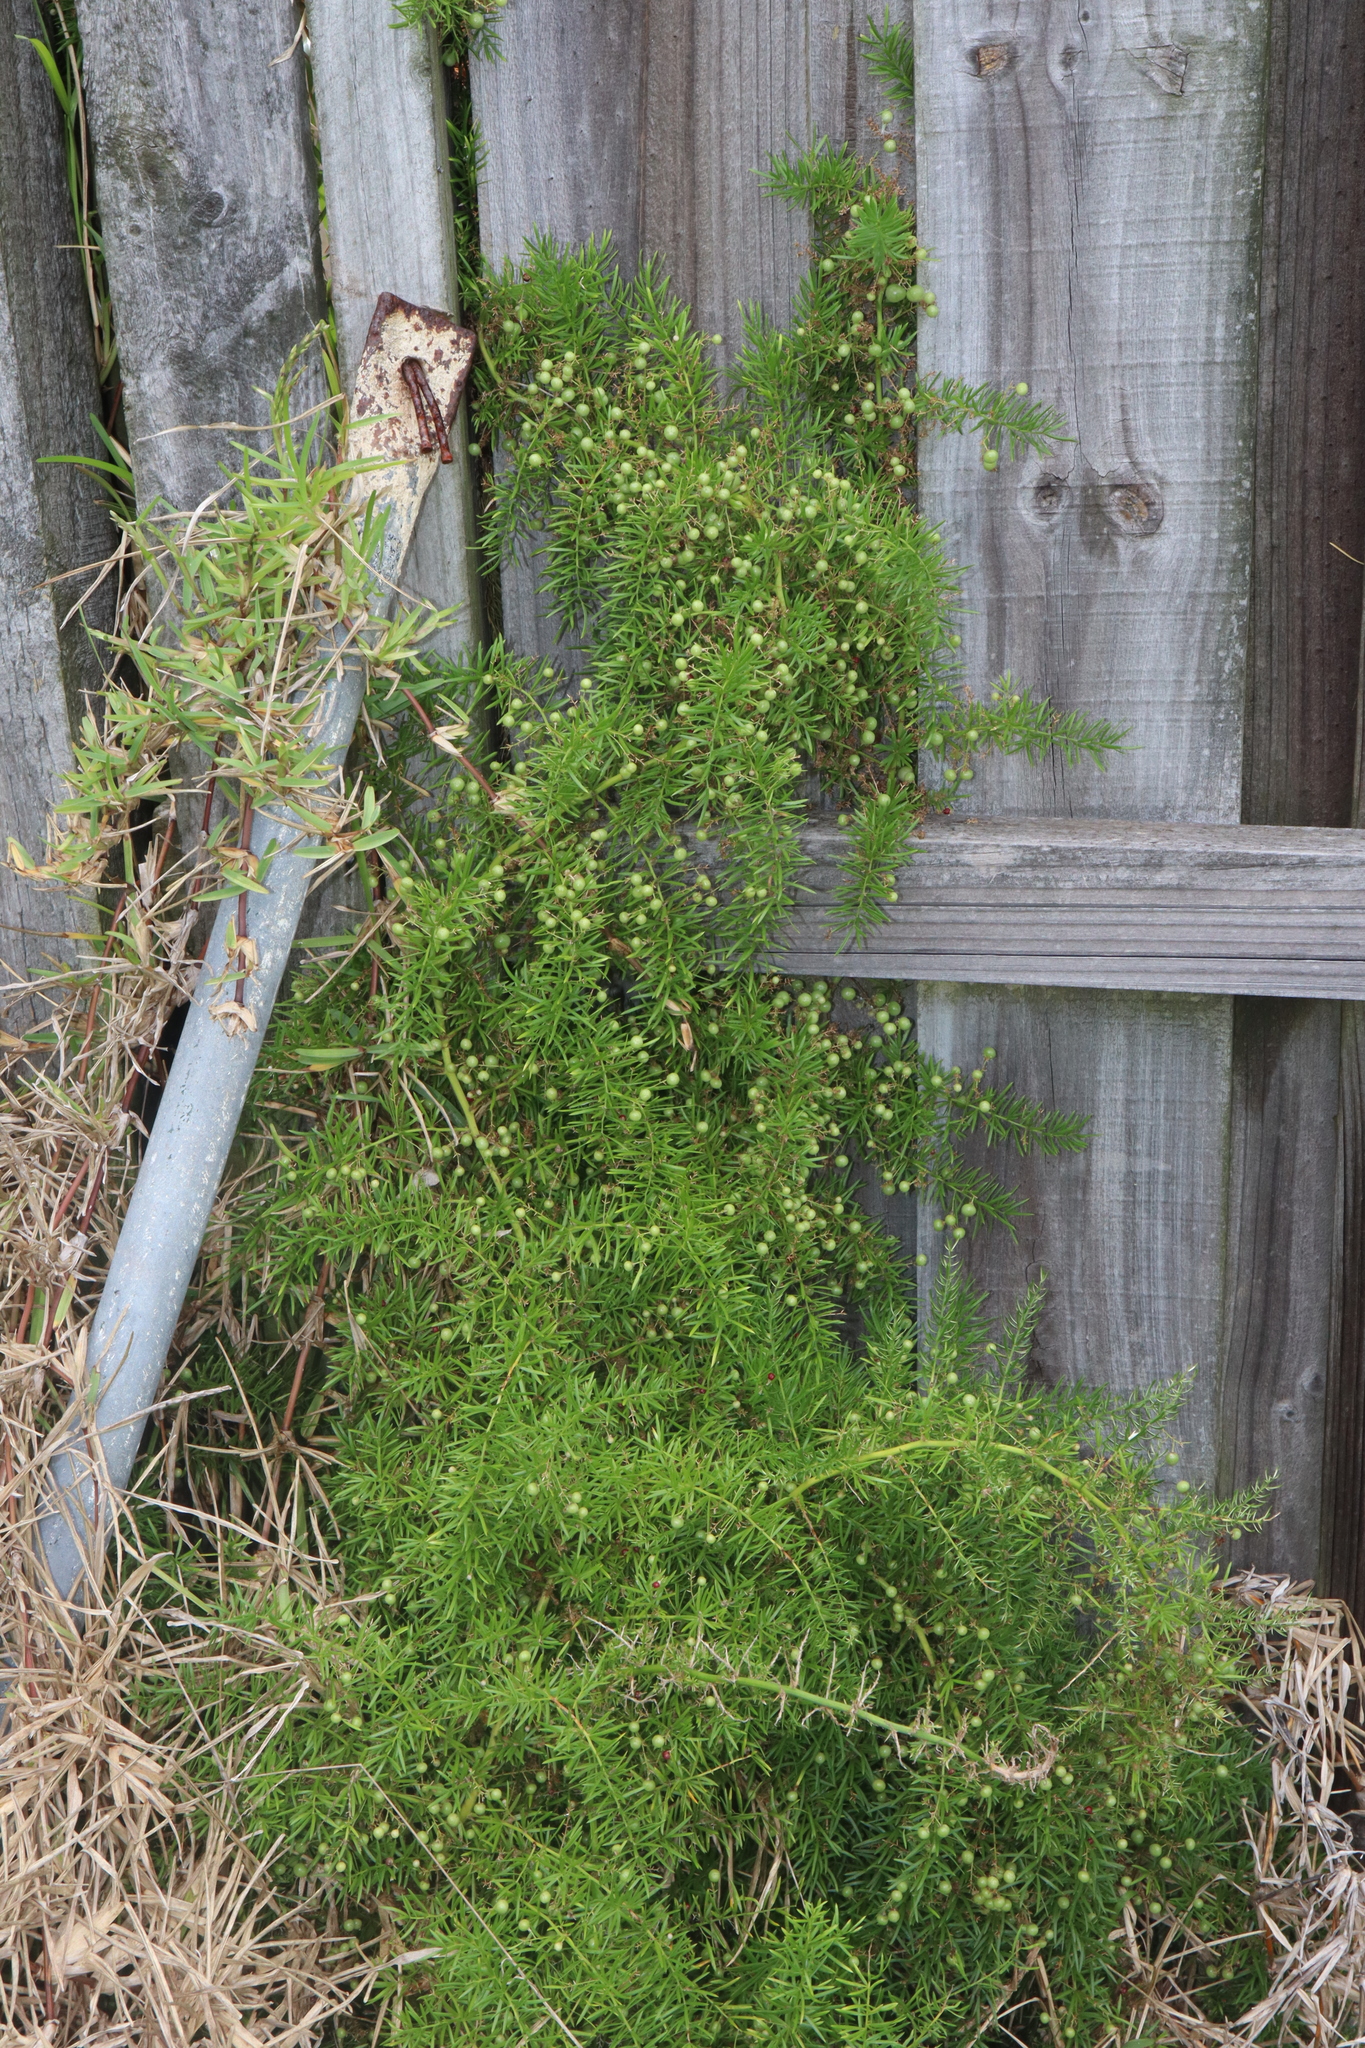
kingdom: Plantae
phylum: Tracheophyta
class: Liliopsida
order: Asparagales
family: Asparagaceae
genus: Asparagus
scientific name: Asparagus aethiopicus
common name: Sprenger's asparagus fern
